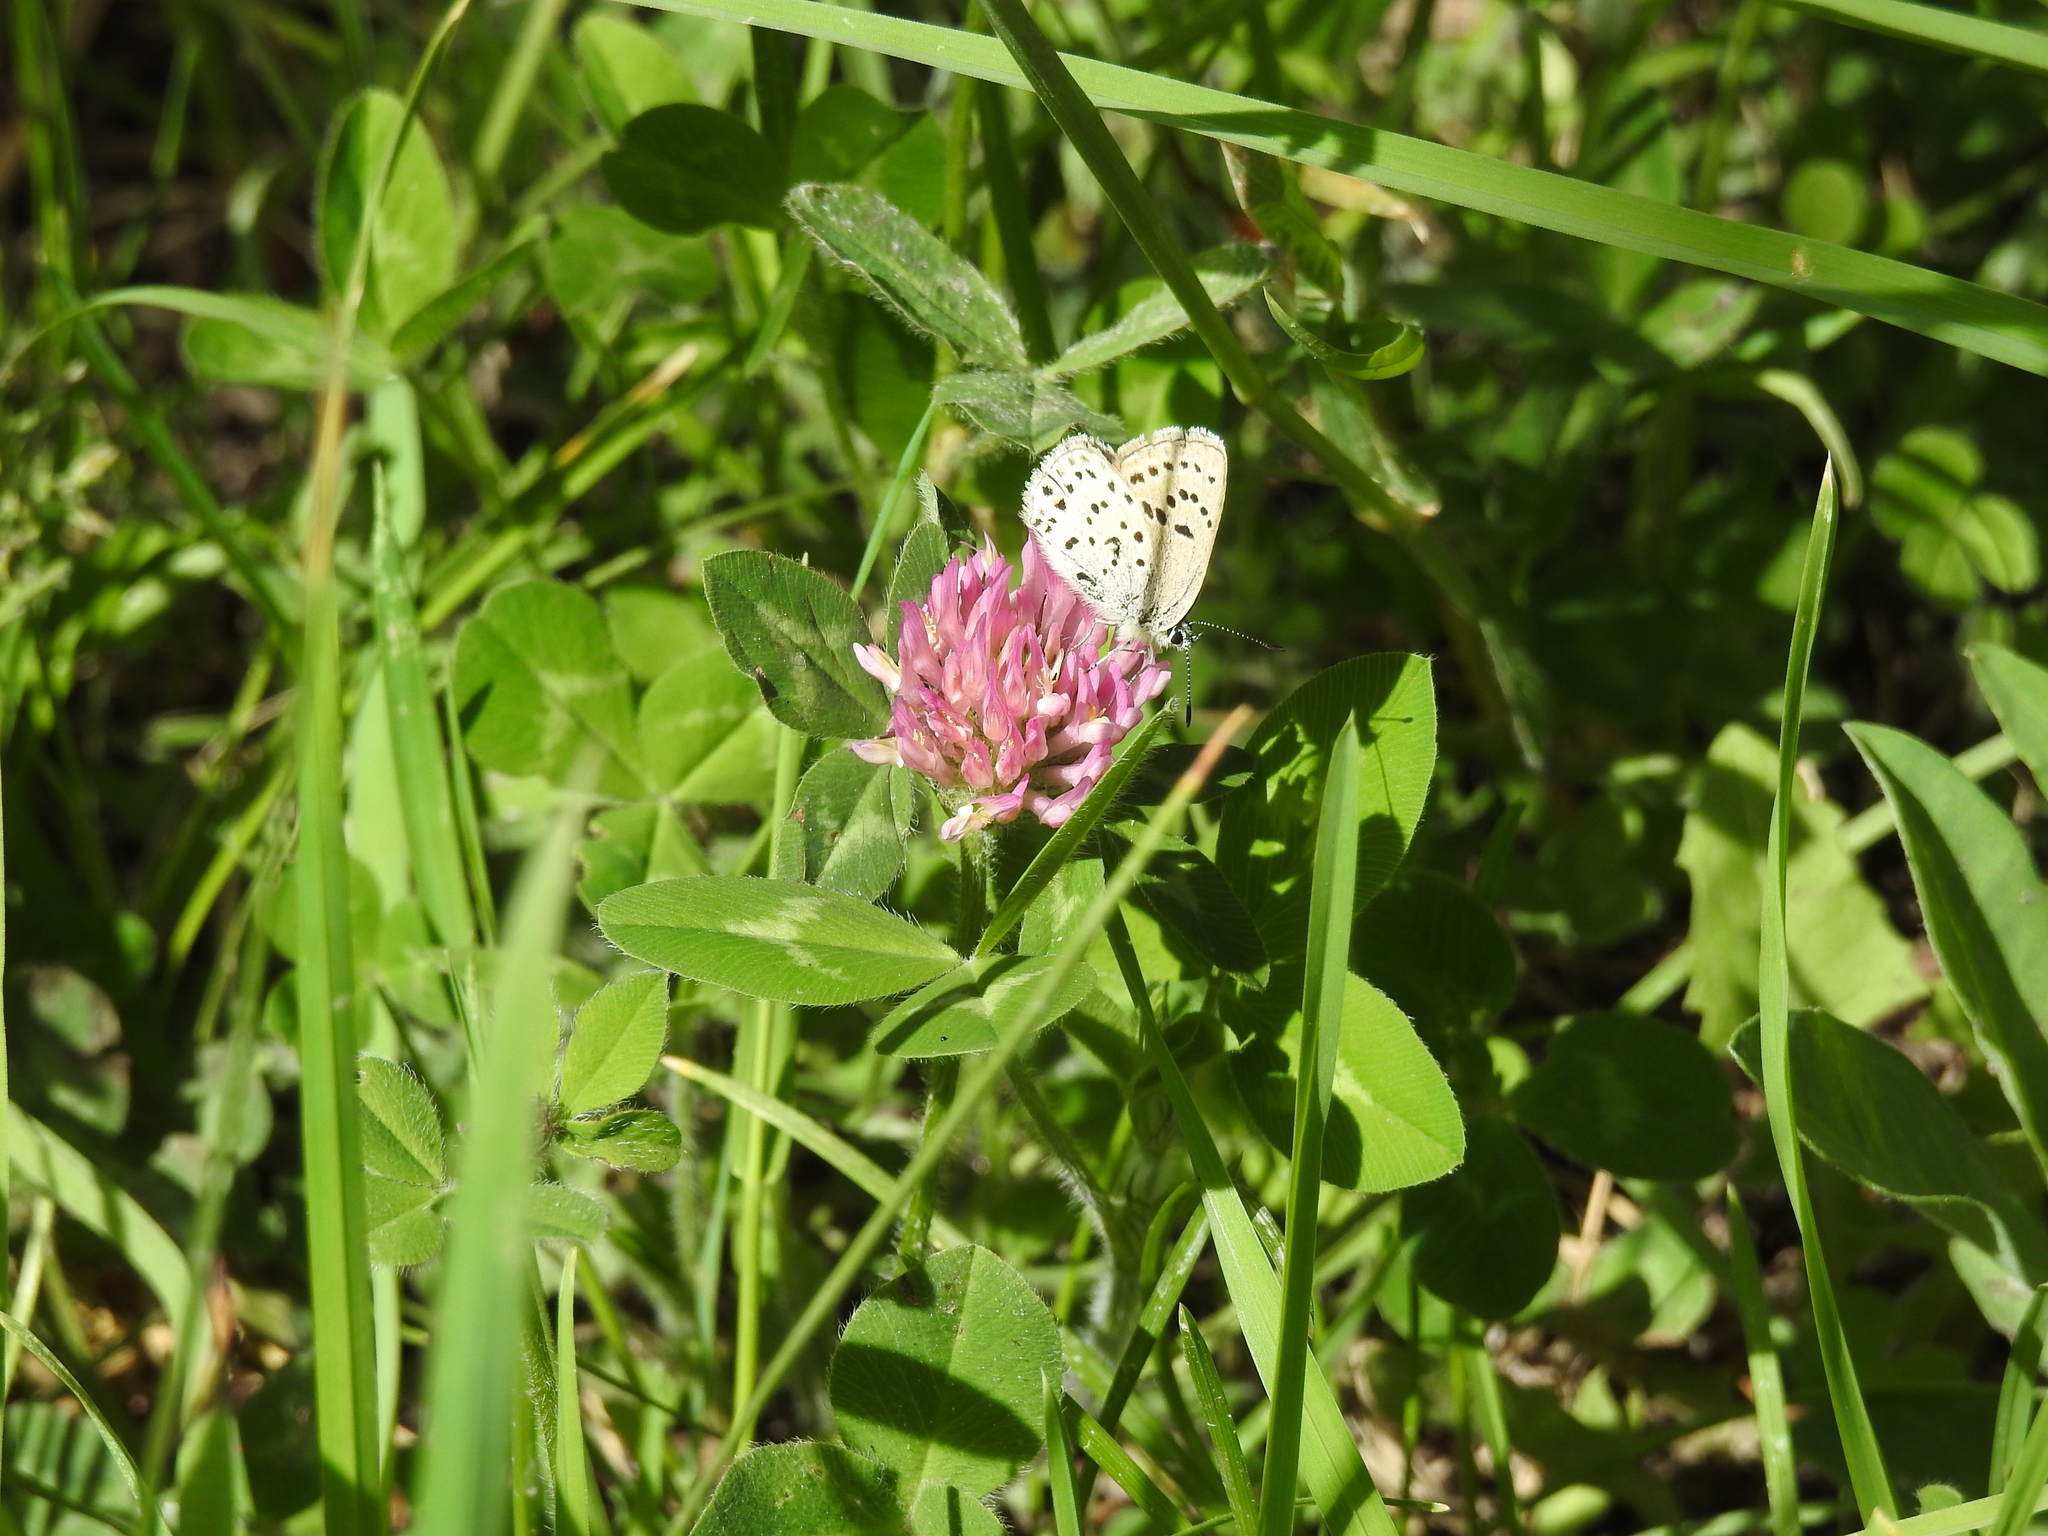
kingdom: Plantae
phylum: Tracheophyta
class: Magnoliopsida
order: Fabales
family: Fabaceae
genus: Trifolium
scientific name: Trifolium pratense
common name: Red clover
